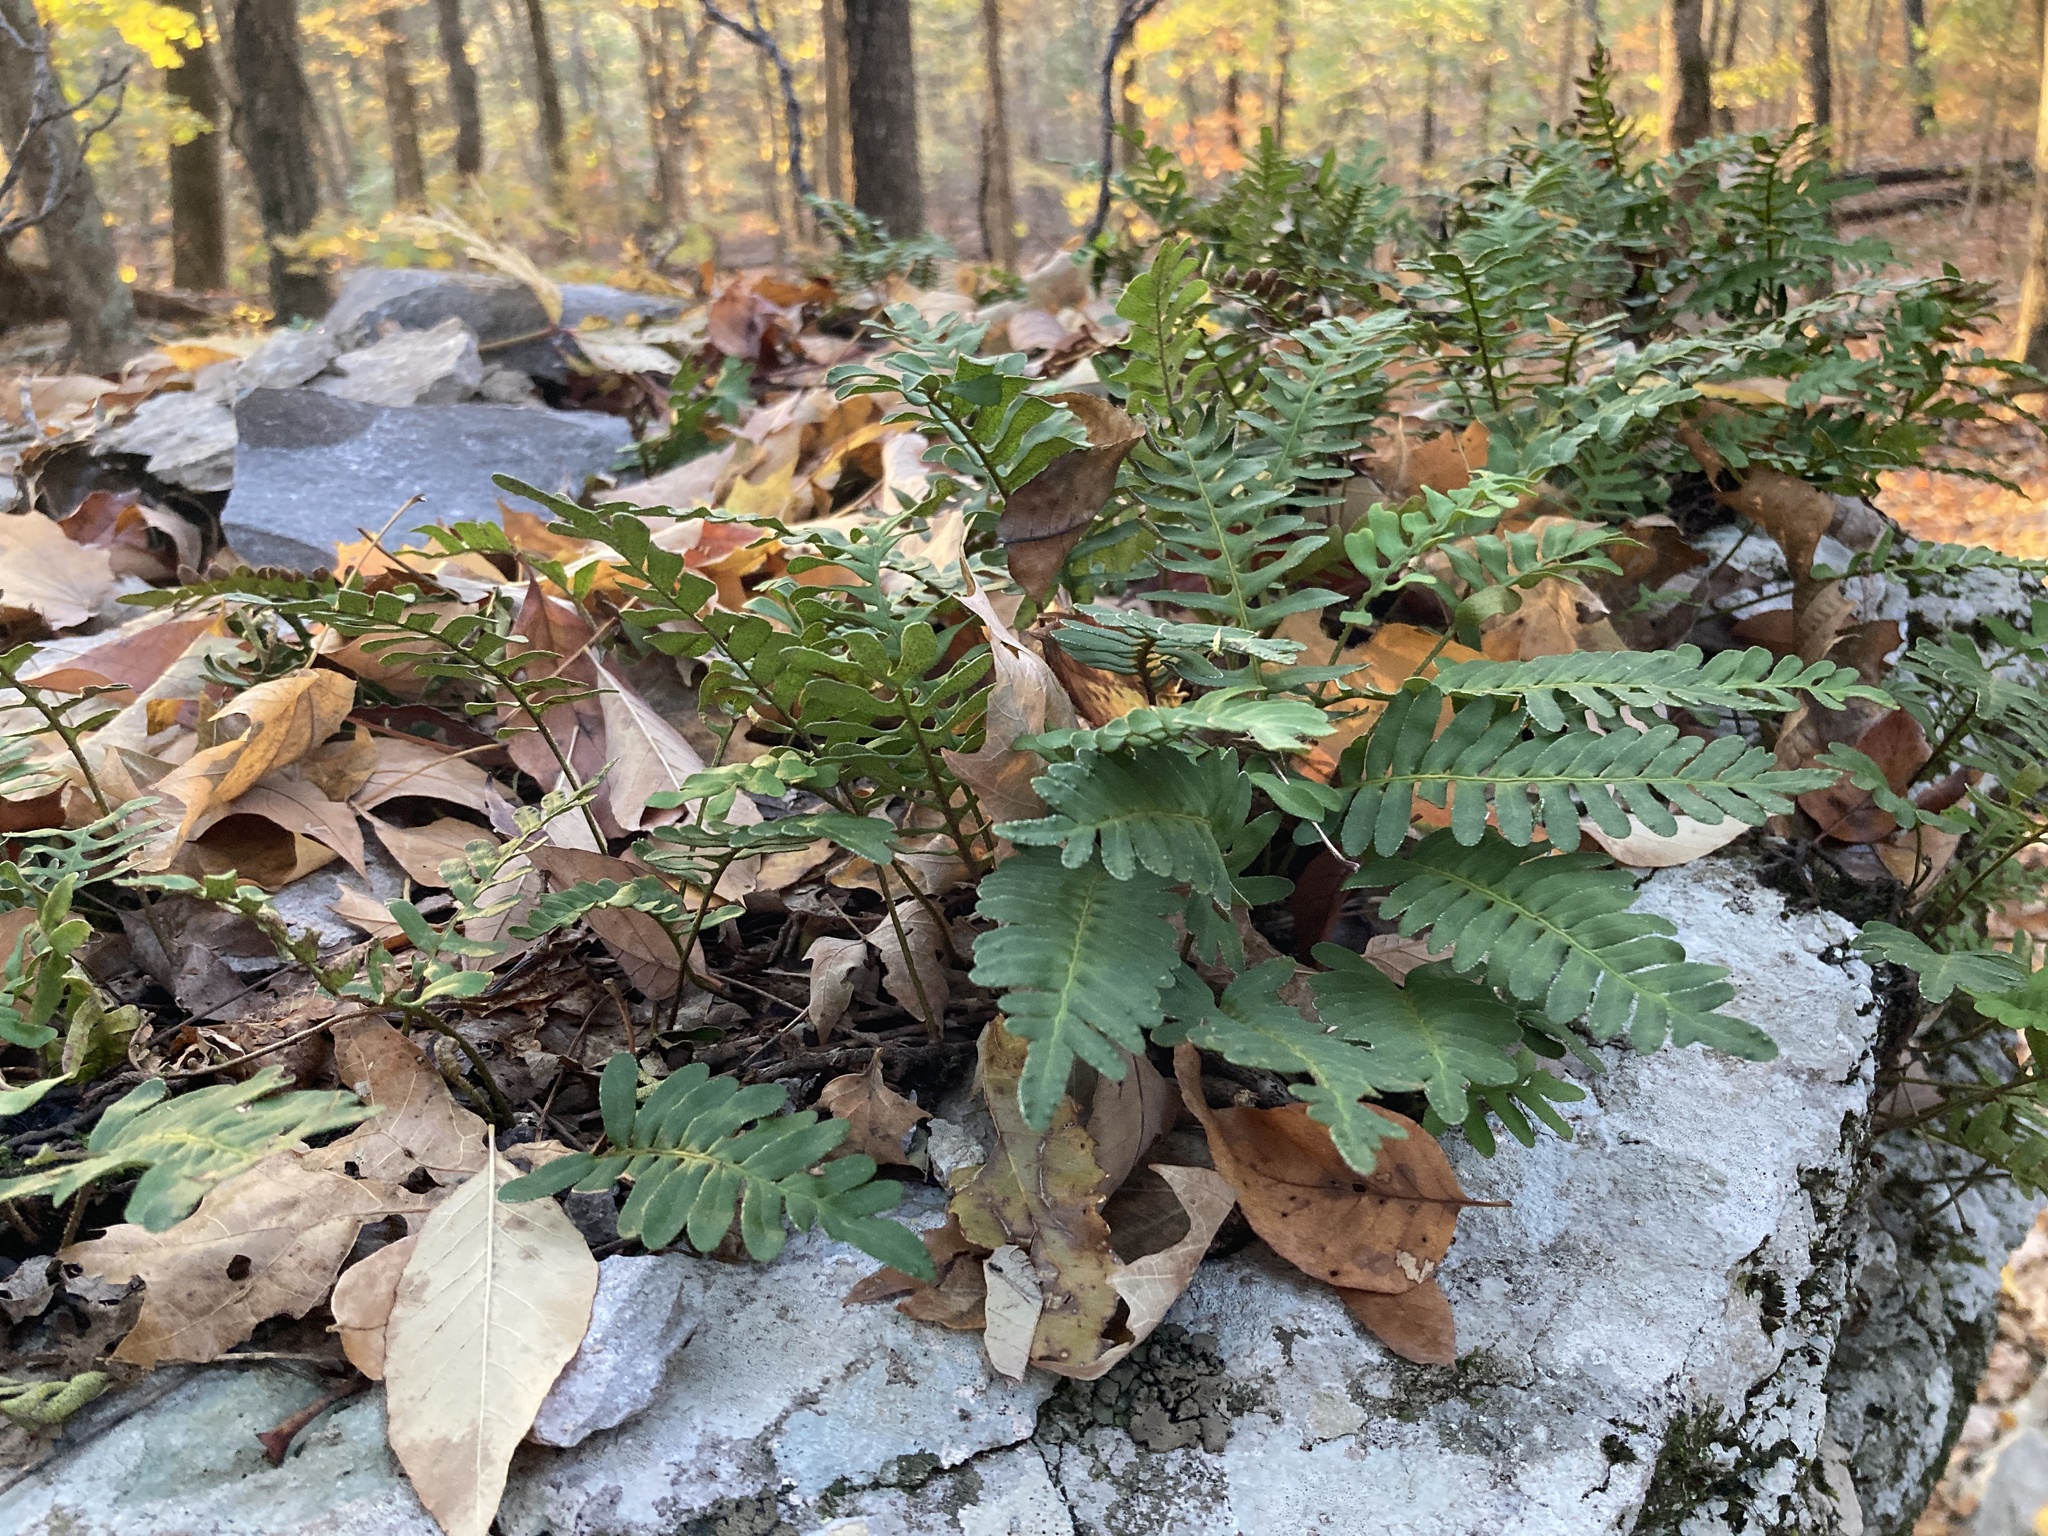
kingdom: Plantae
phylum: Tracheophyta
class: Polypodiopsida
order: Polypodiales
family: Polypodiaceae
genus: Pleopeltis
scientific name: Pleopeltis michauxiana
